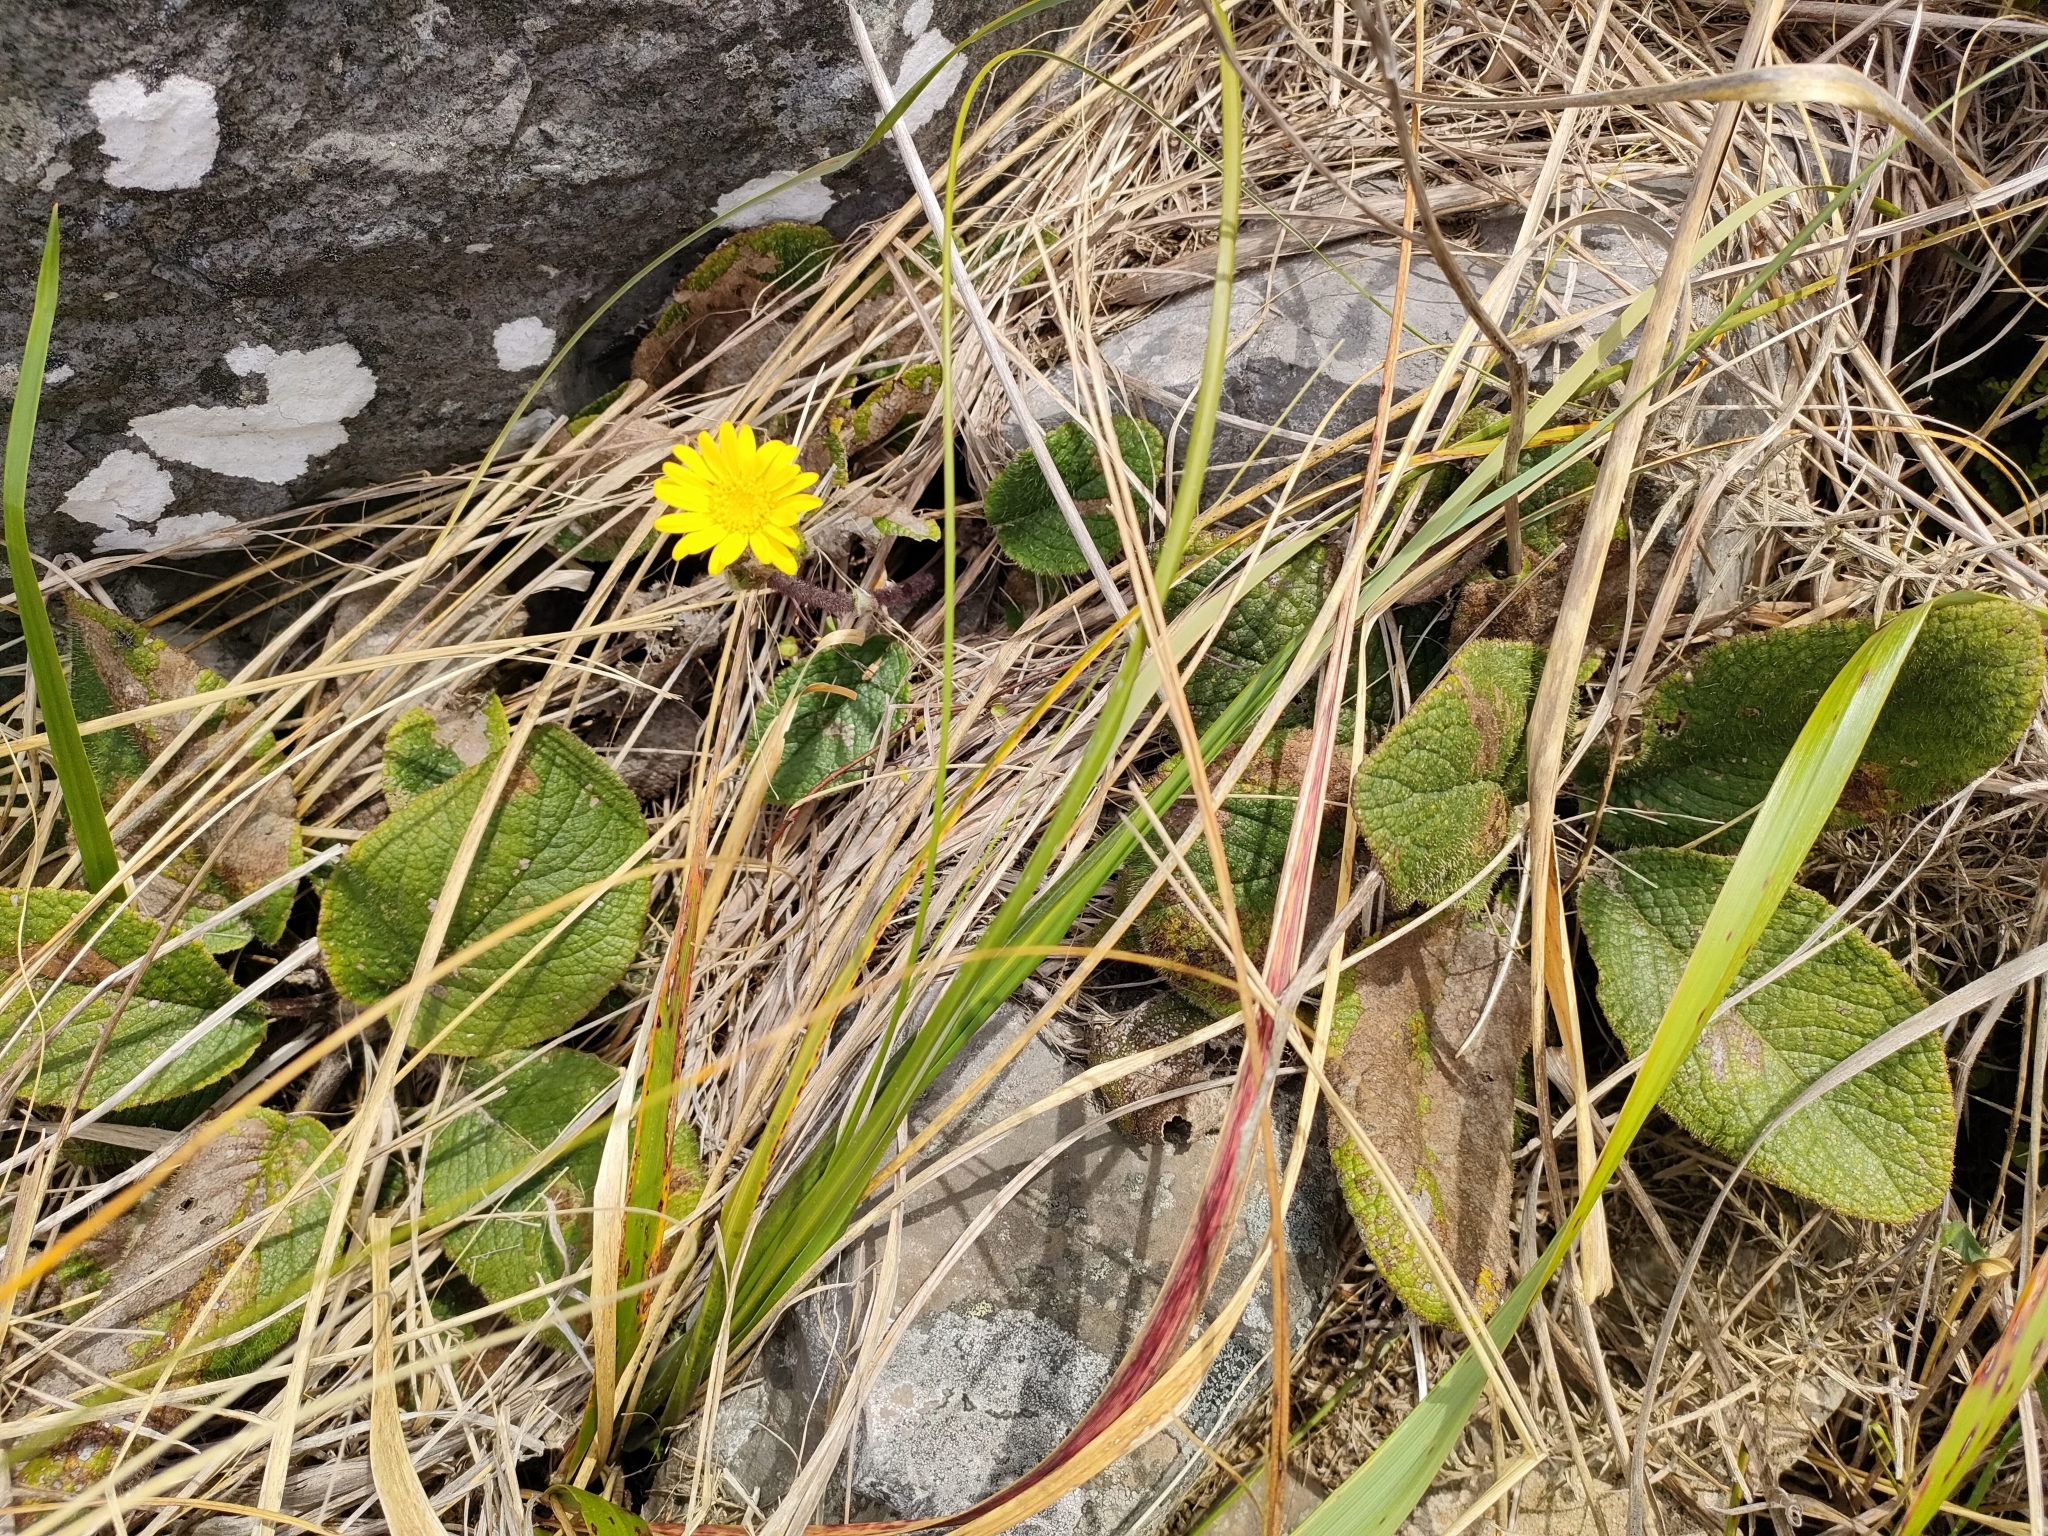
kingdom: Plantae
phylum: Tracheophyta
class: Magnoliopsida
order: Asterales
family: Asteraceae
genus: Brachyglottis
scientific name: Brachyglottis lagopus
